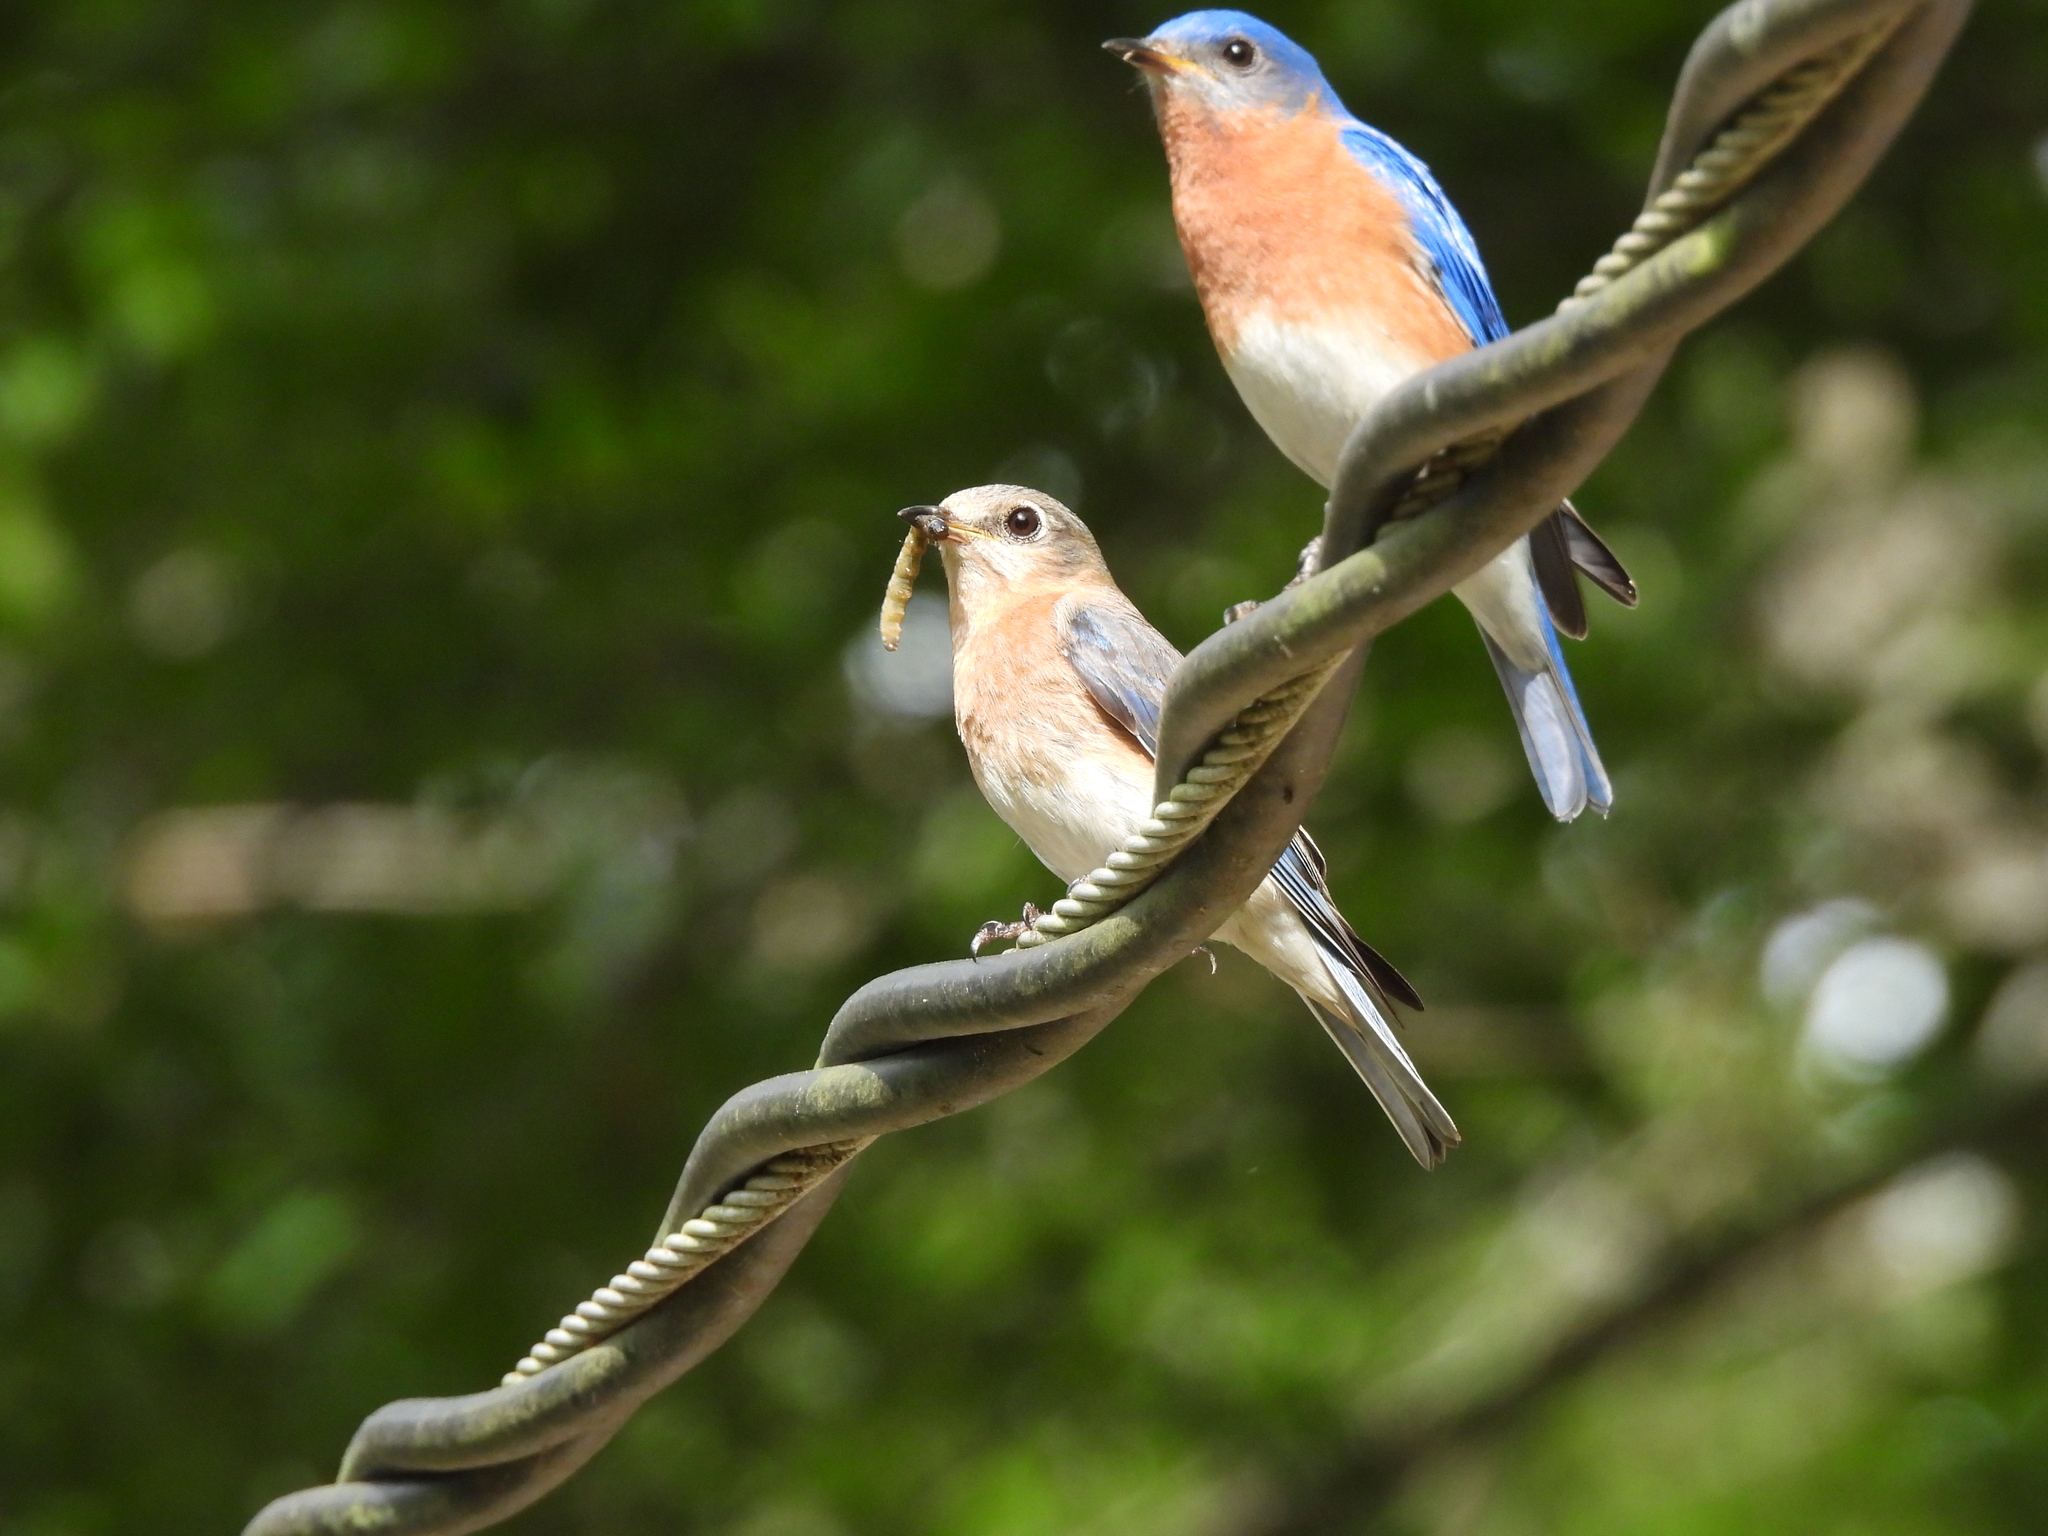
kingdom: Animalia
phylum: Chordata
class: Aves
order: Passeriformes
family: Turdidae
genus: Sialia
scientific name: Sialia sialis
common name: Eastern bluebird
